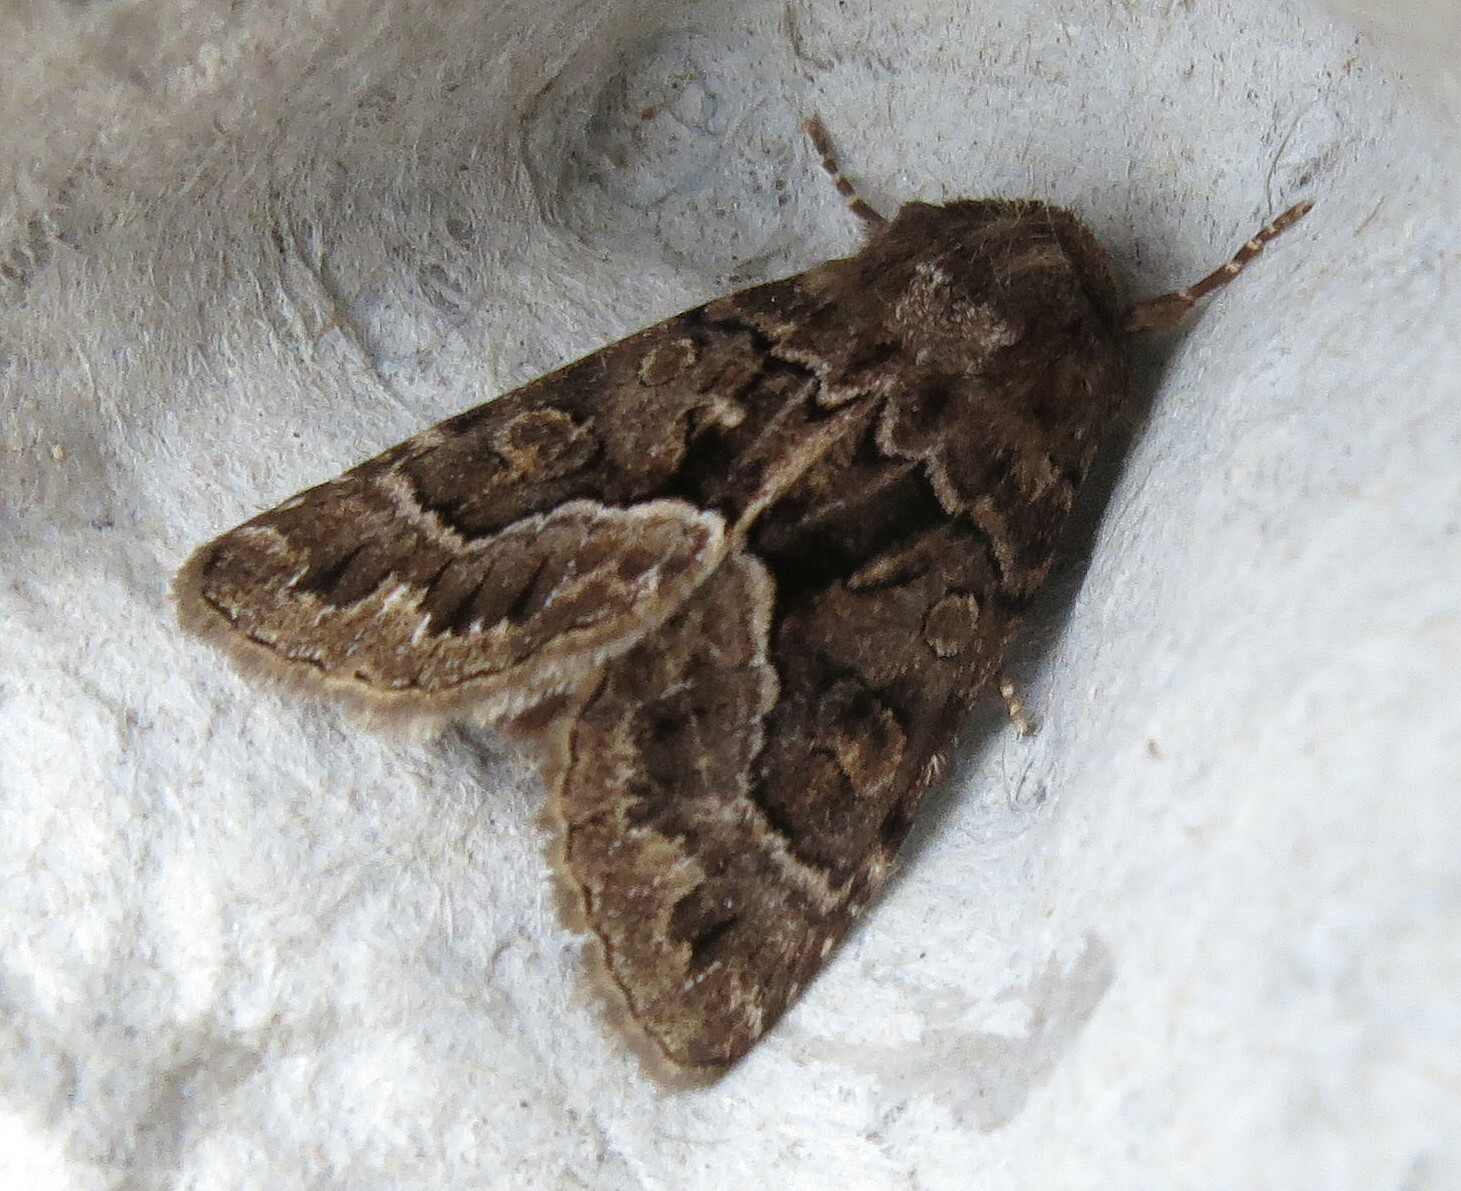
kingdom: Animalia
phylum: Arthropoda
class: Insecta
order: Lepidoptera
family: Noctuidae
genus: Thalpophila
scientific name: Thalpophila matura
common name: Straw underwing
